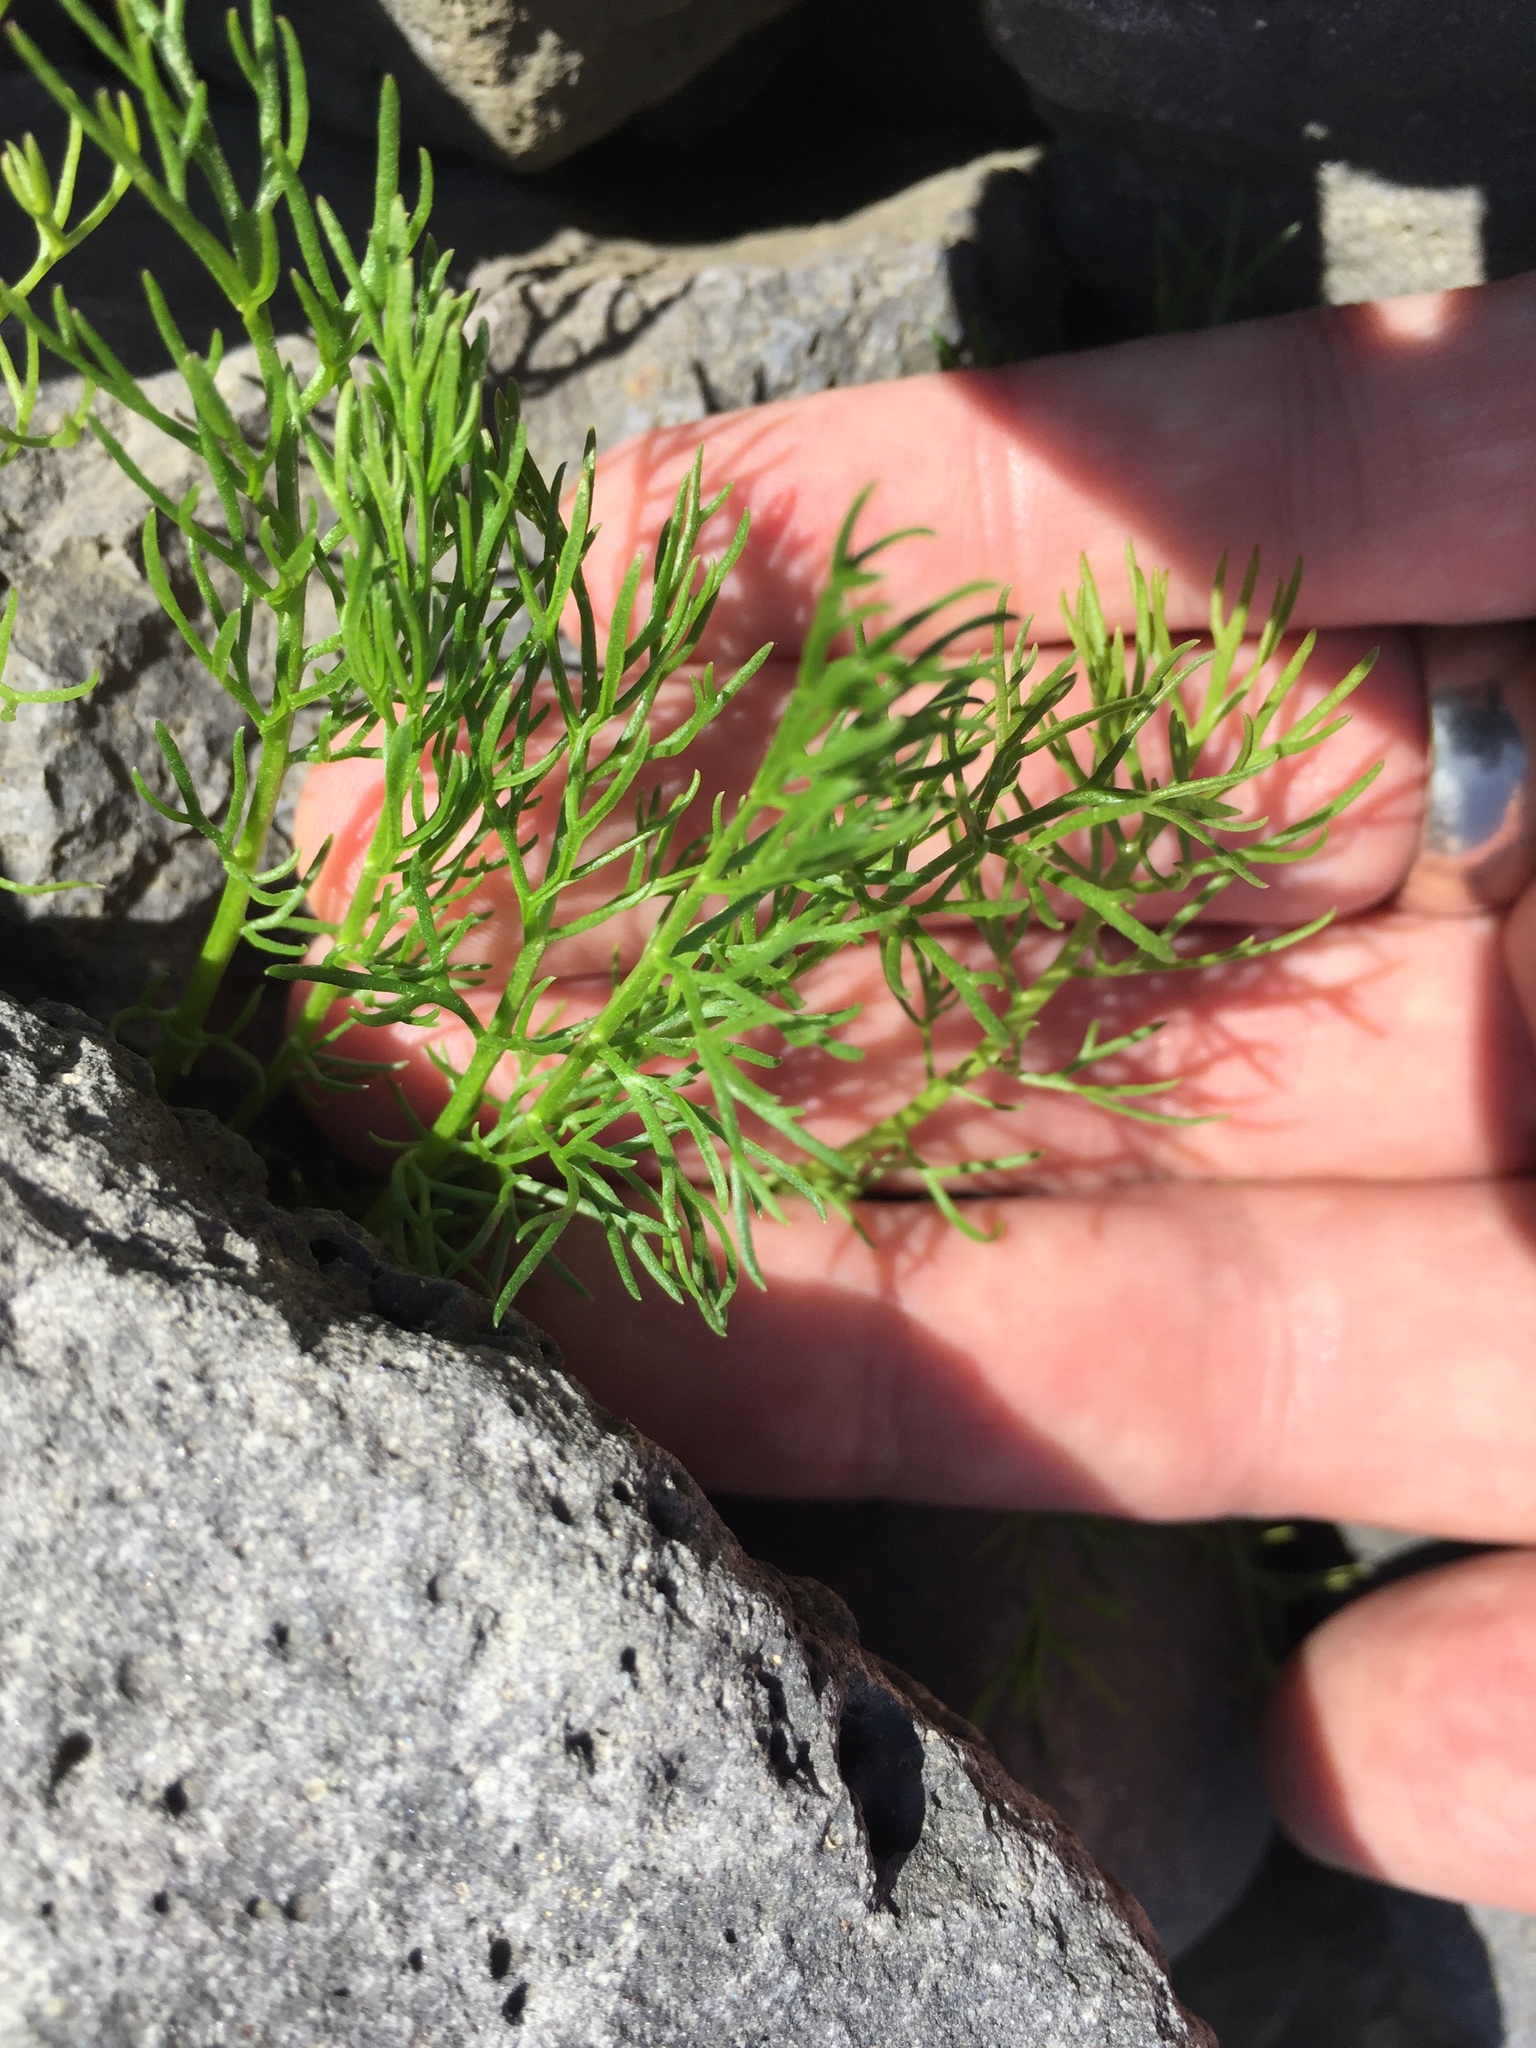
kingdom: Plantae
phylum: Tracheophyta
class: Magnoliopsida
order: Asterales
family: Asteraceae
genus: Tripleurospermum
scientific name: Tripleurospermum maritimum
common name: Sea mayweed
